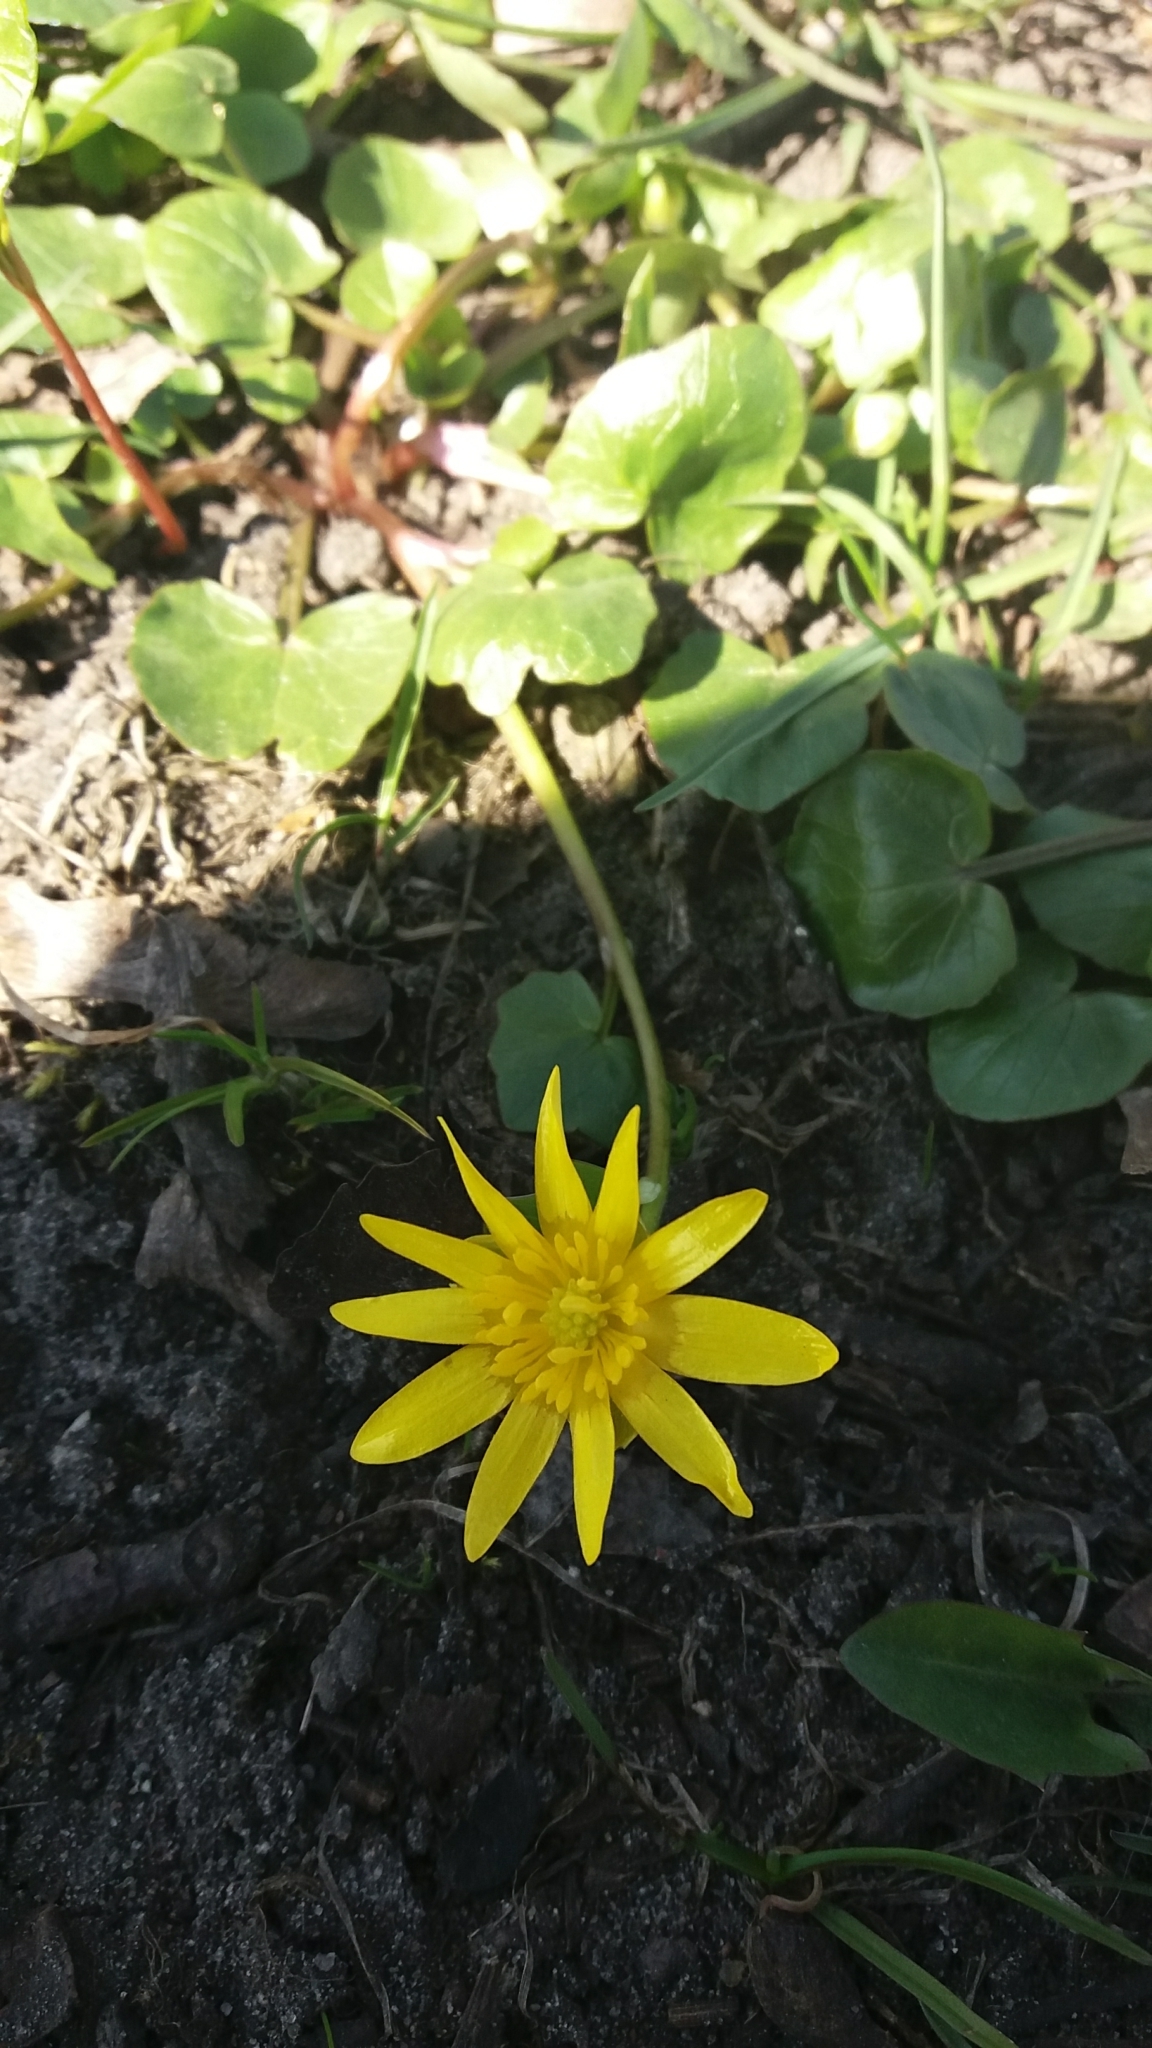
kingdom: Plantae
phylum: Tracheophyta
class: Magnoliopsida
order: Ranunculales
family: Ranunculaceae
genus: Ficaria
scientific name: Ficaria verna
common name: Lesser celandine
